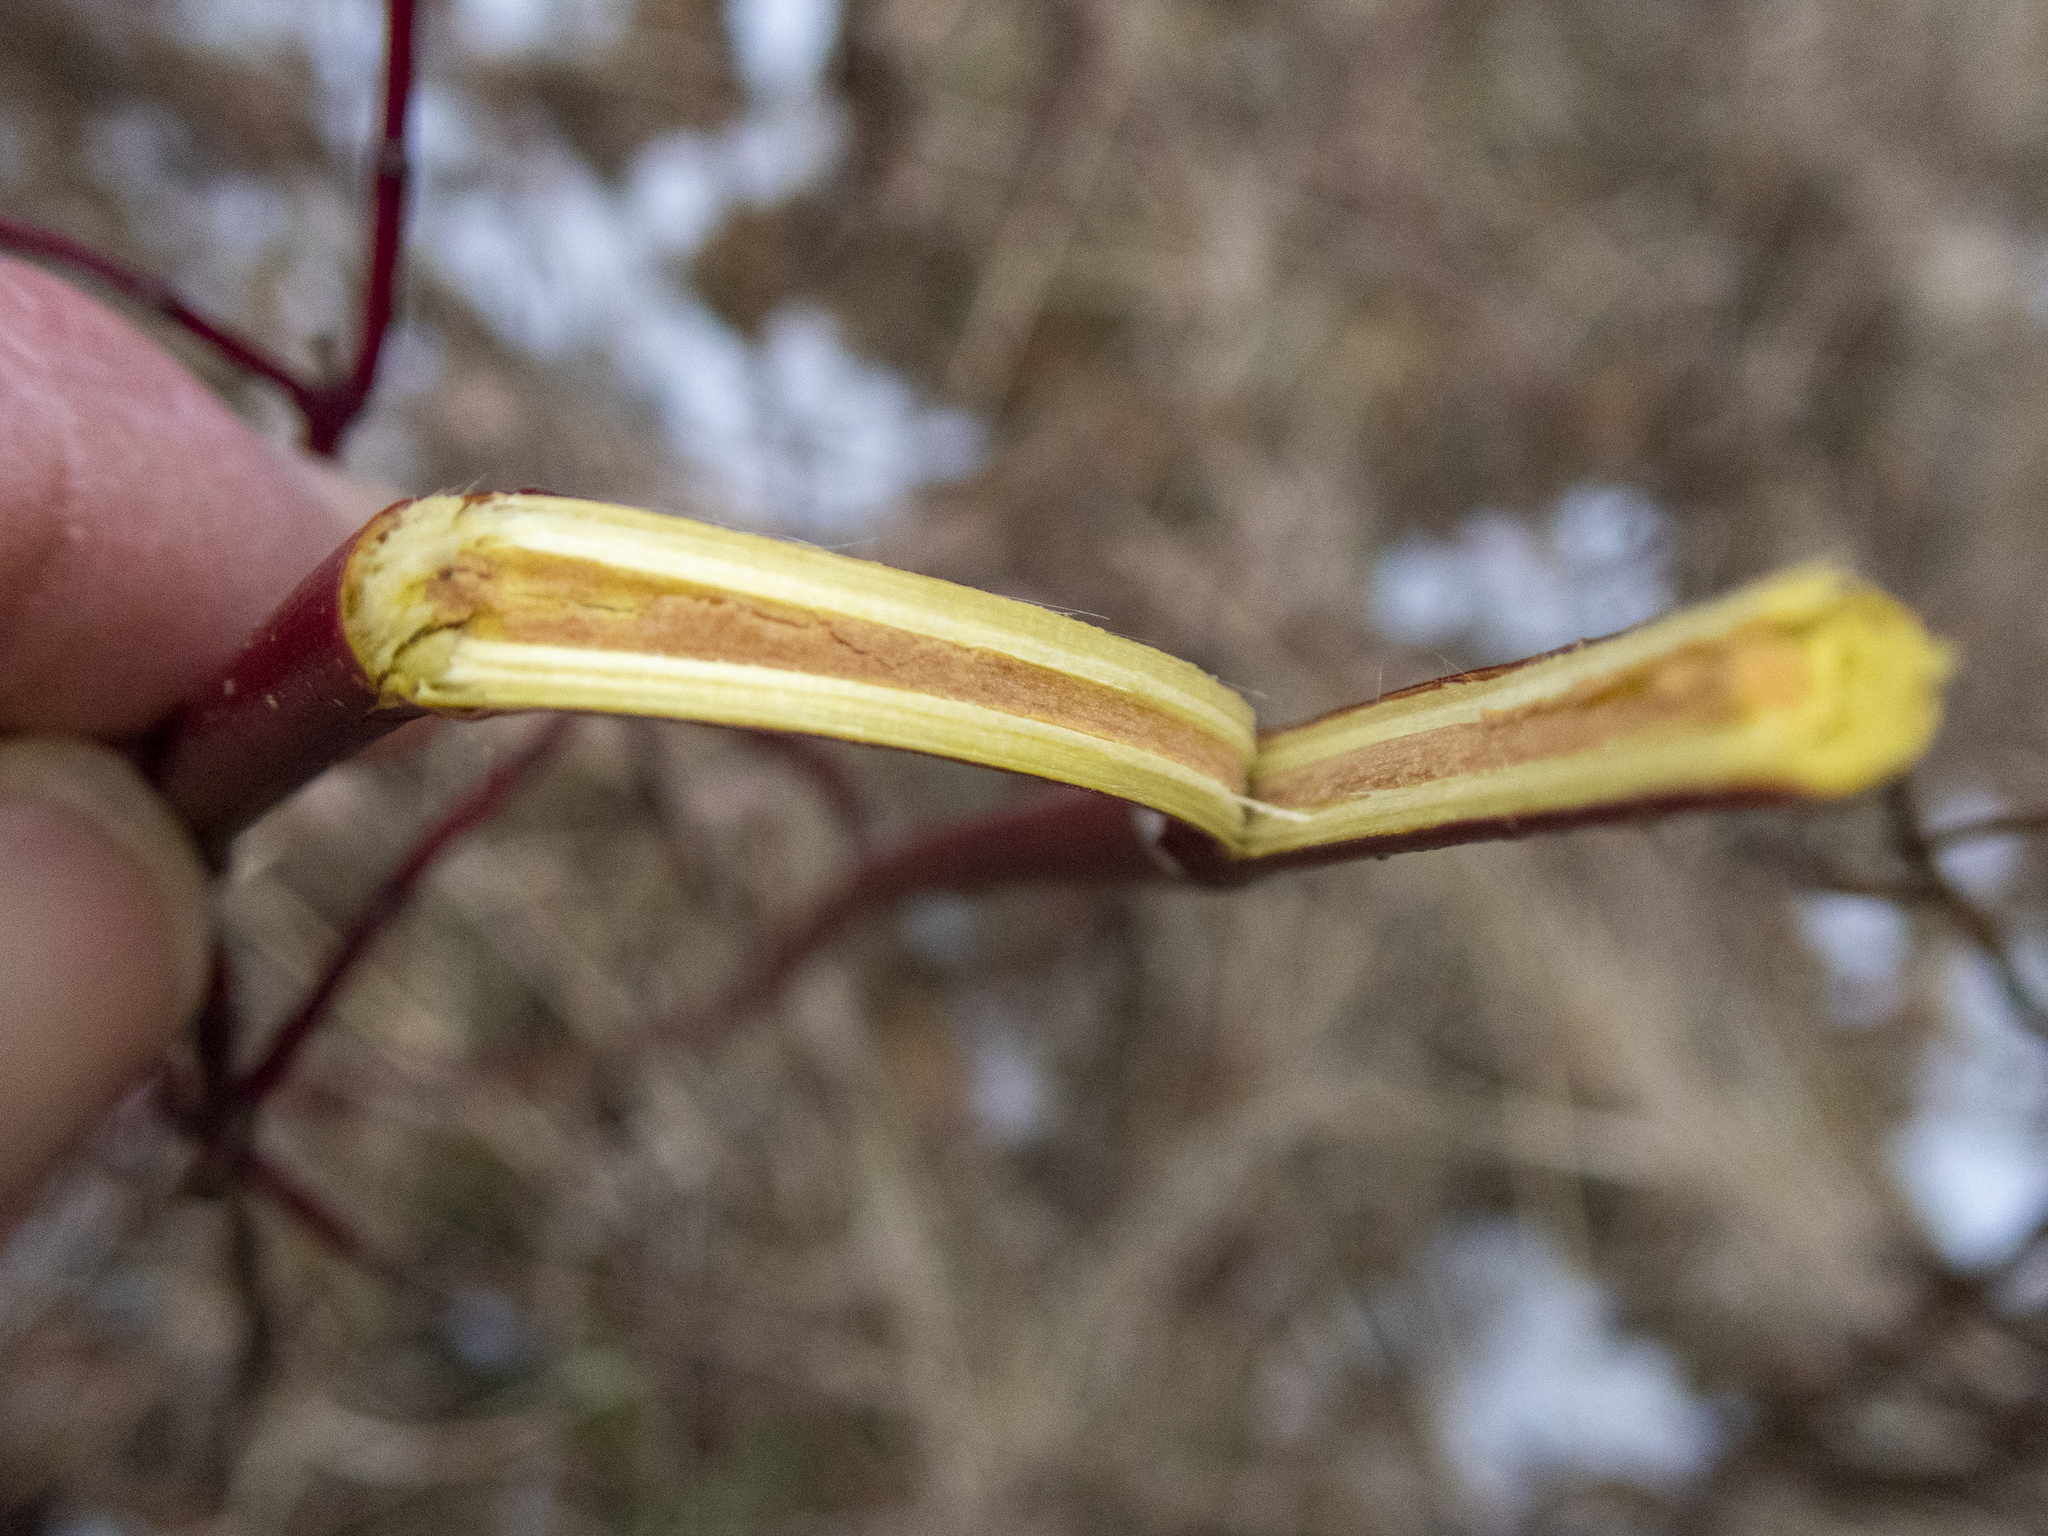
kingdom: Plantae
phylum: Tracheophyta
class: Magnoliopsida
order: Cornales
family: Cornaceae
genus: Cornus
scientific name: Cornus amomum
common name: Silky dogwood
